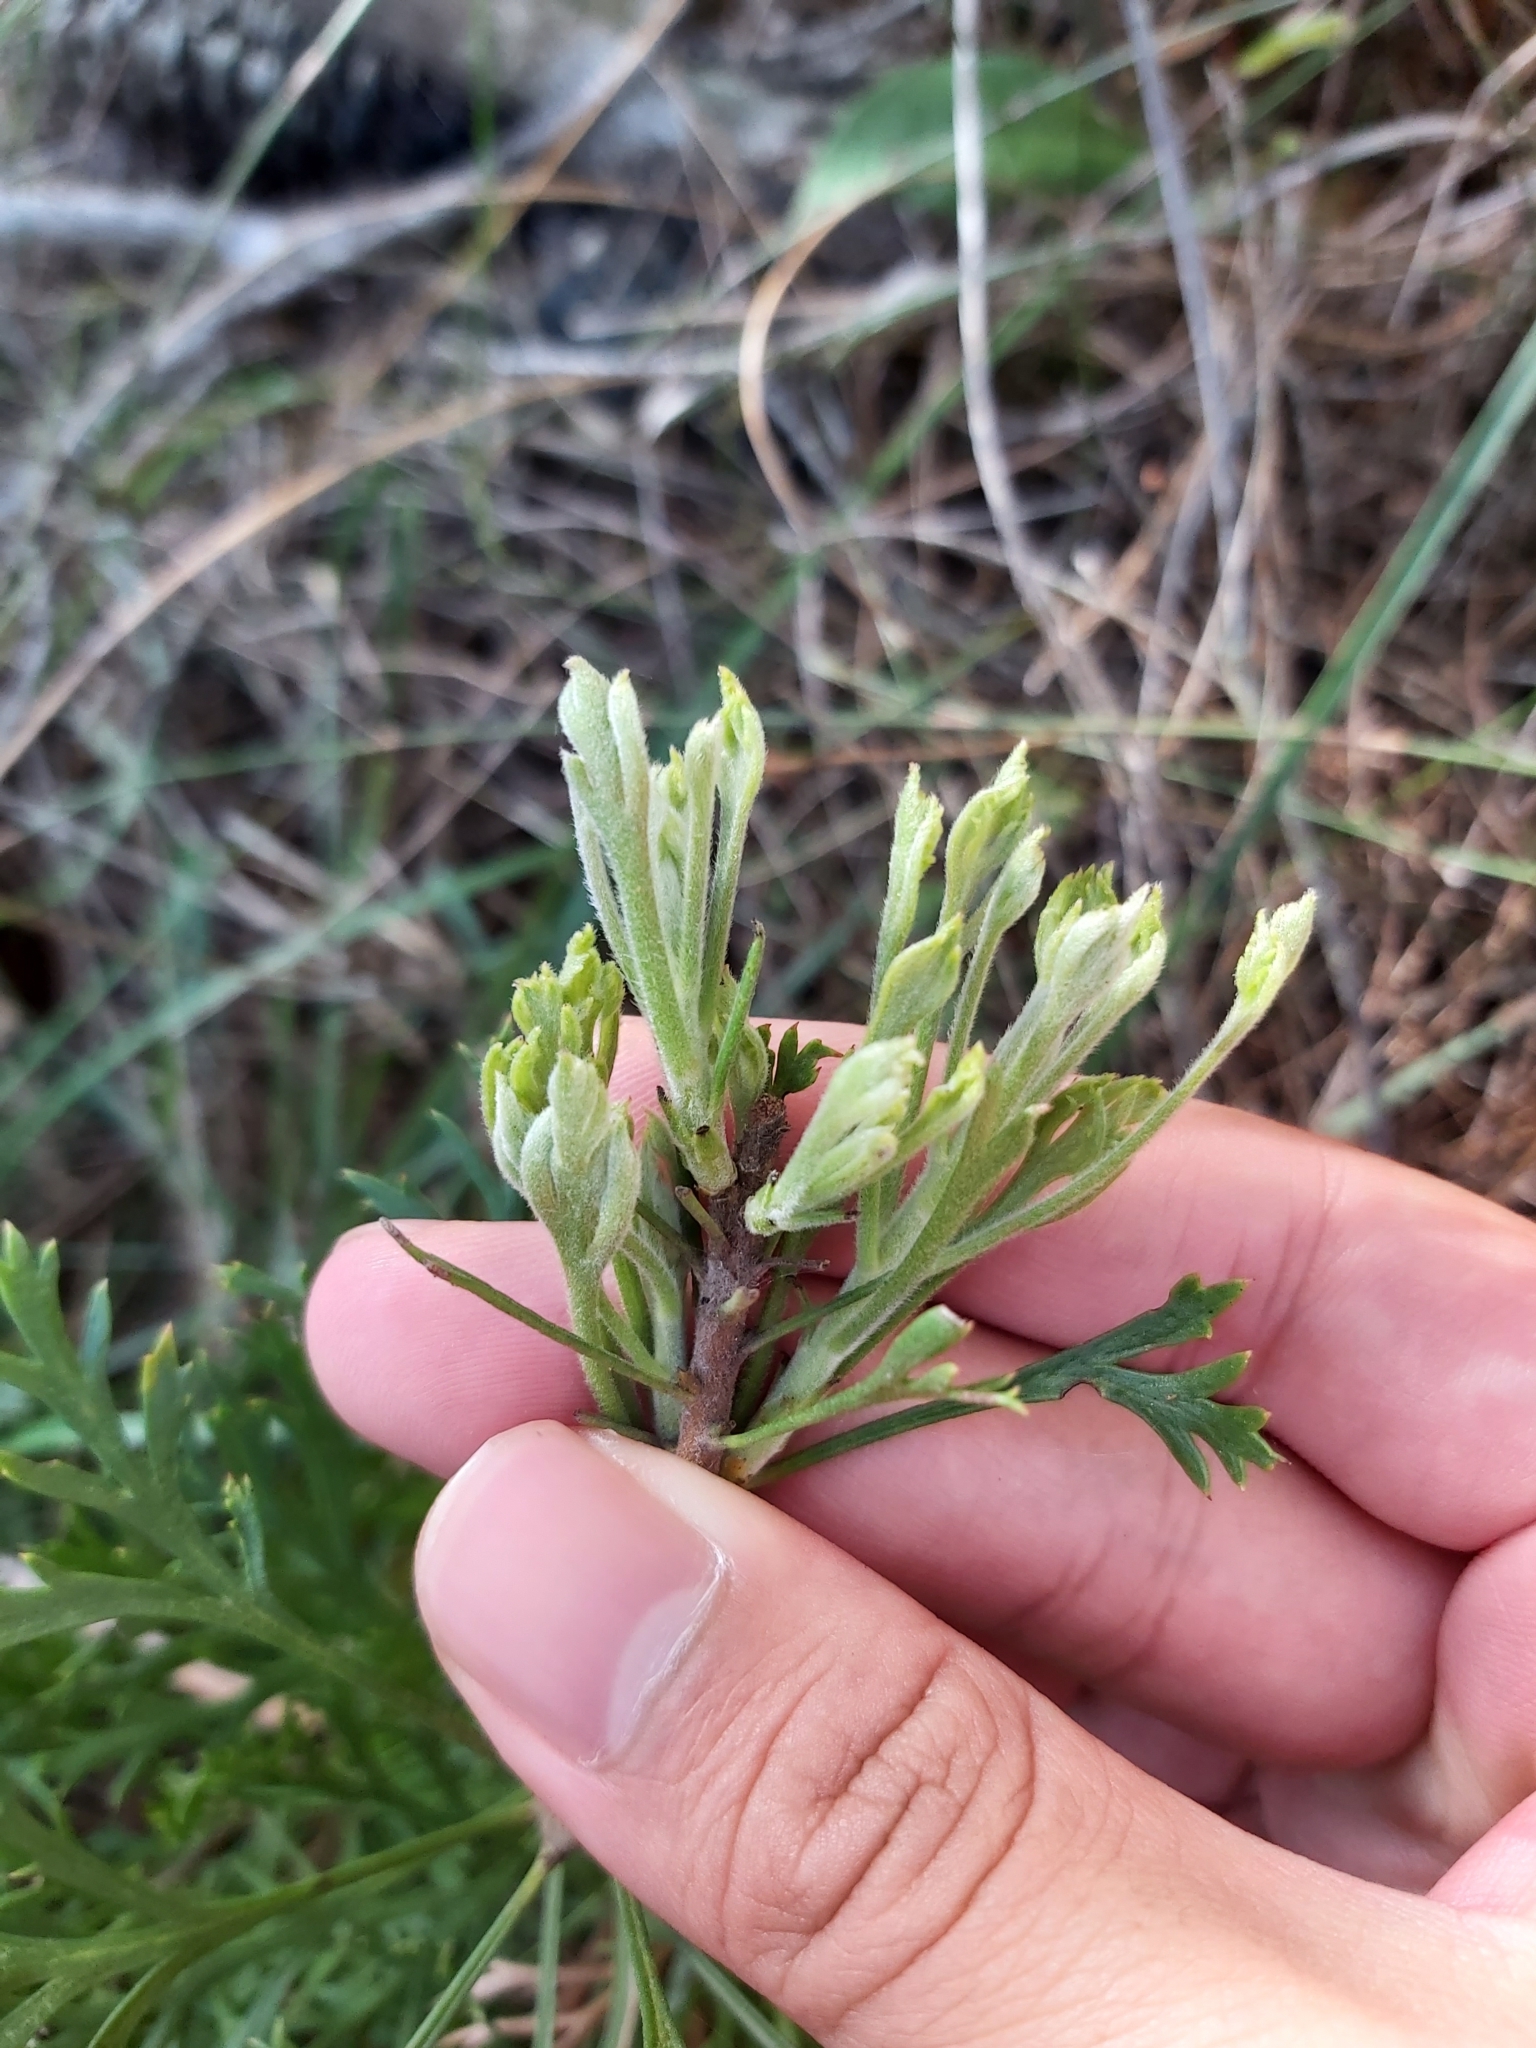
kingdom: Plantae
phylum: Tracheophyta
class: Magnoliopsida
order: Proteales
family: Proteaceae
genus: Isopogon
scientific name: Isopogon anemonifolius
